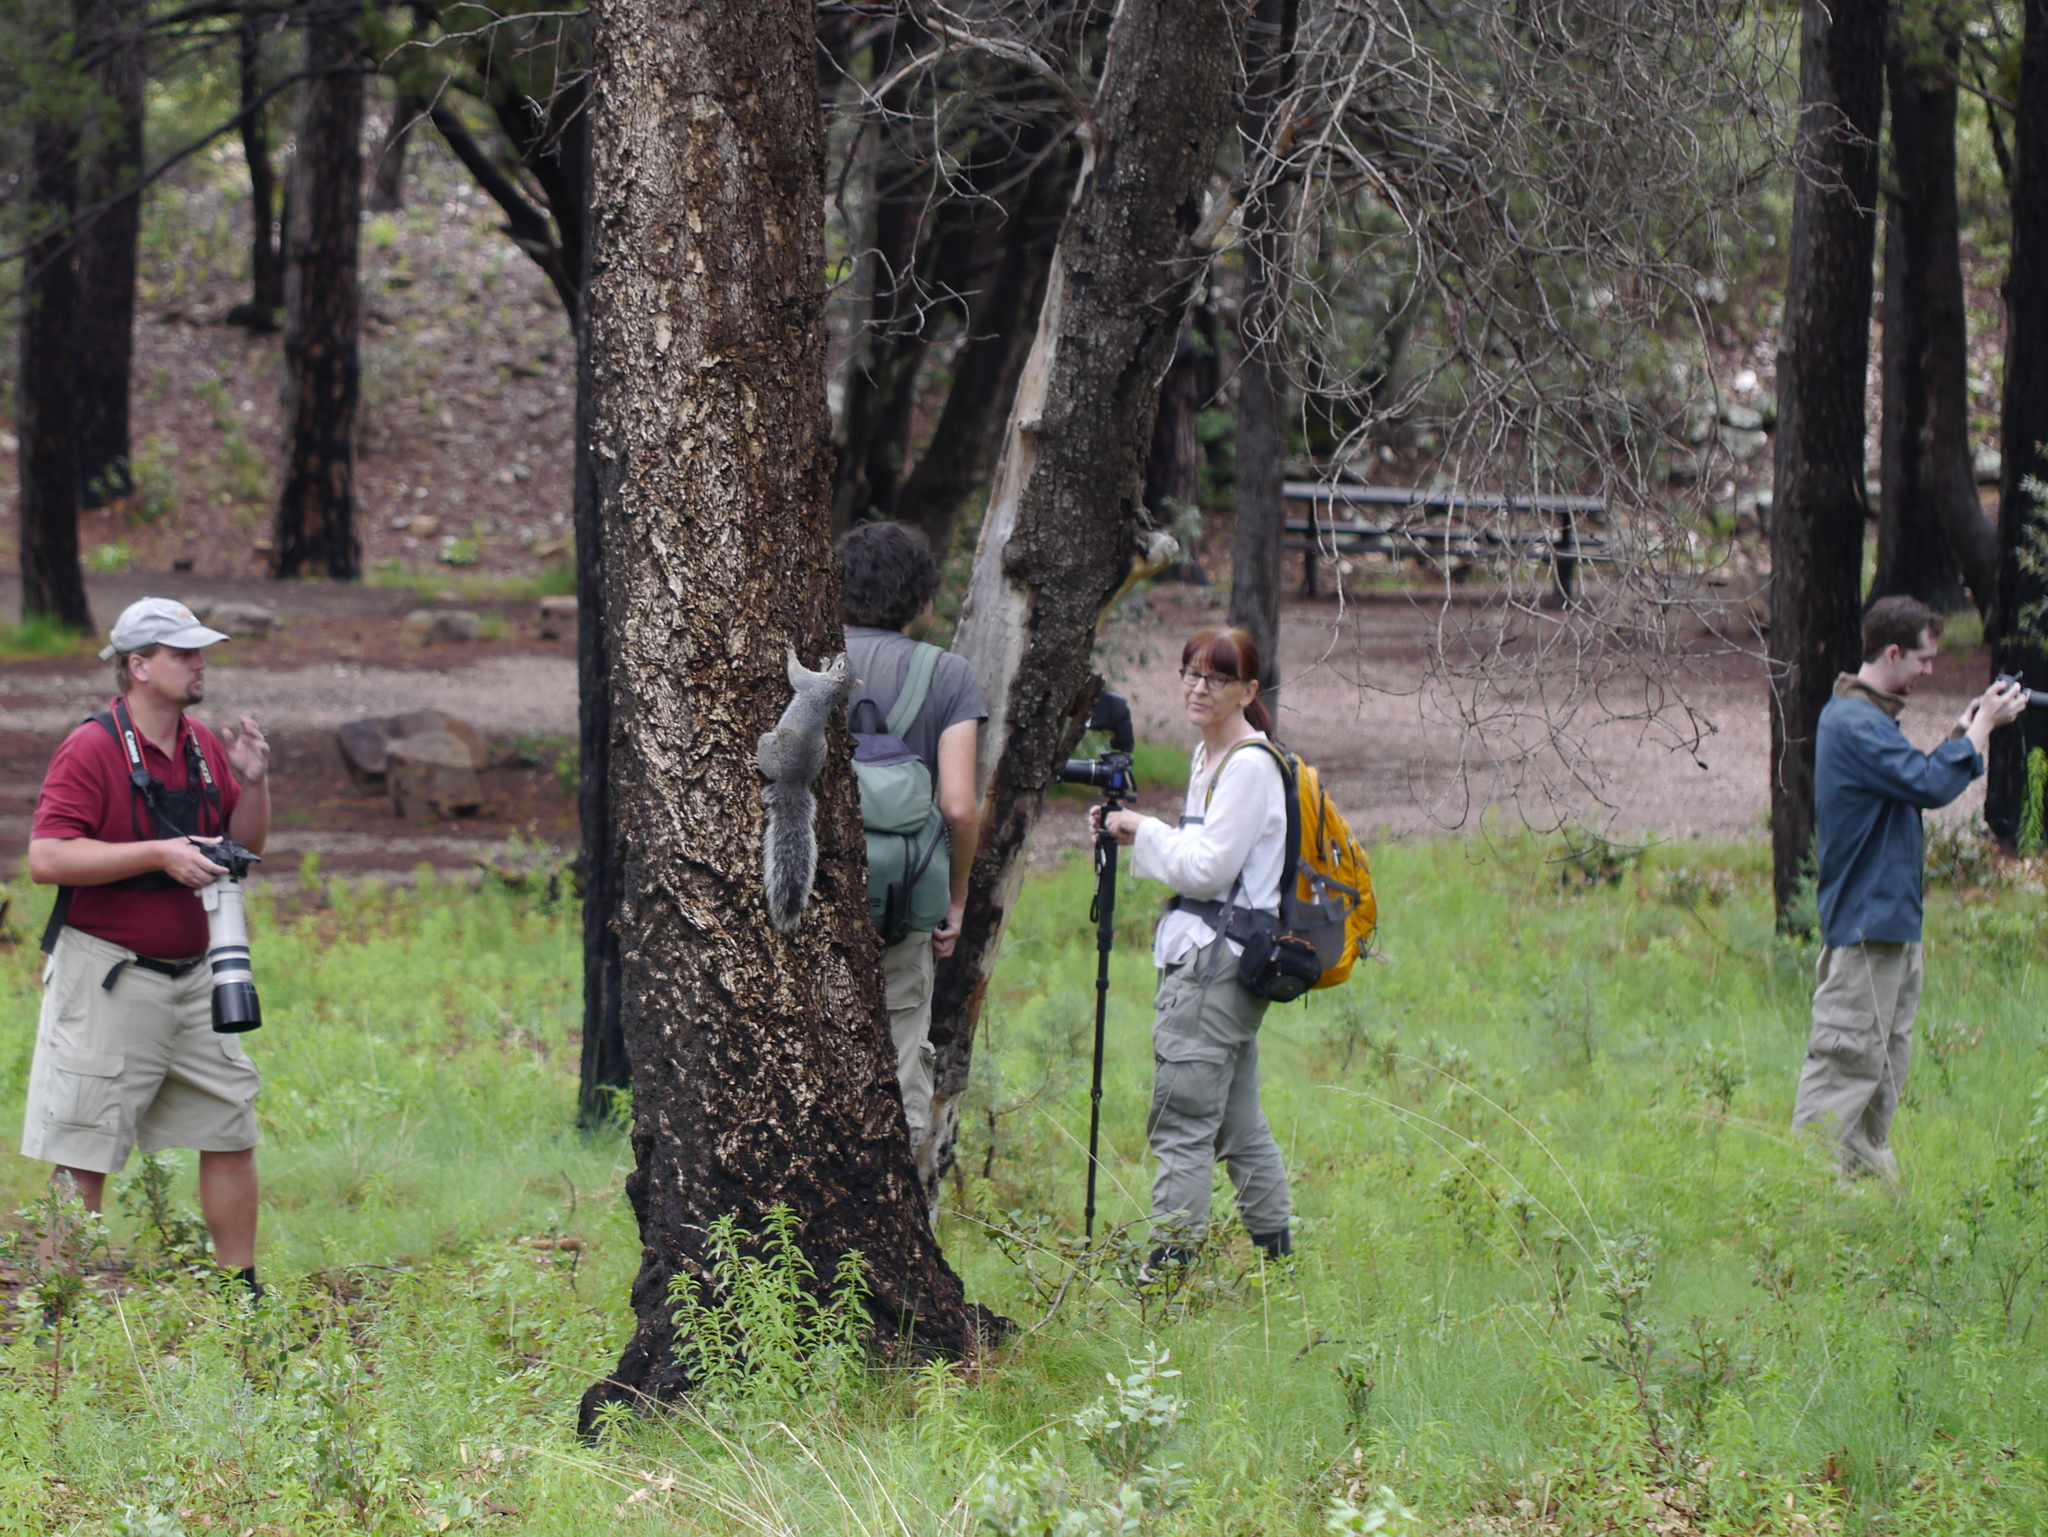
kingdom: Animalia
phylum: Chordata
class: Mammalia
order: Rodentia
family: Sciuridae
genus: Sciurus
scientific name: Sciurus arizonensis
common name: Arizona gray squirrel
